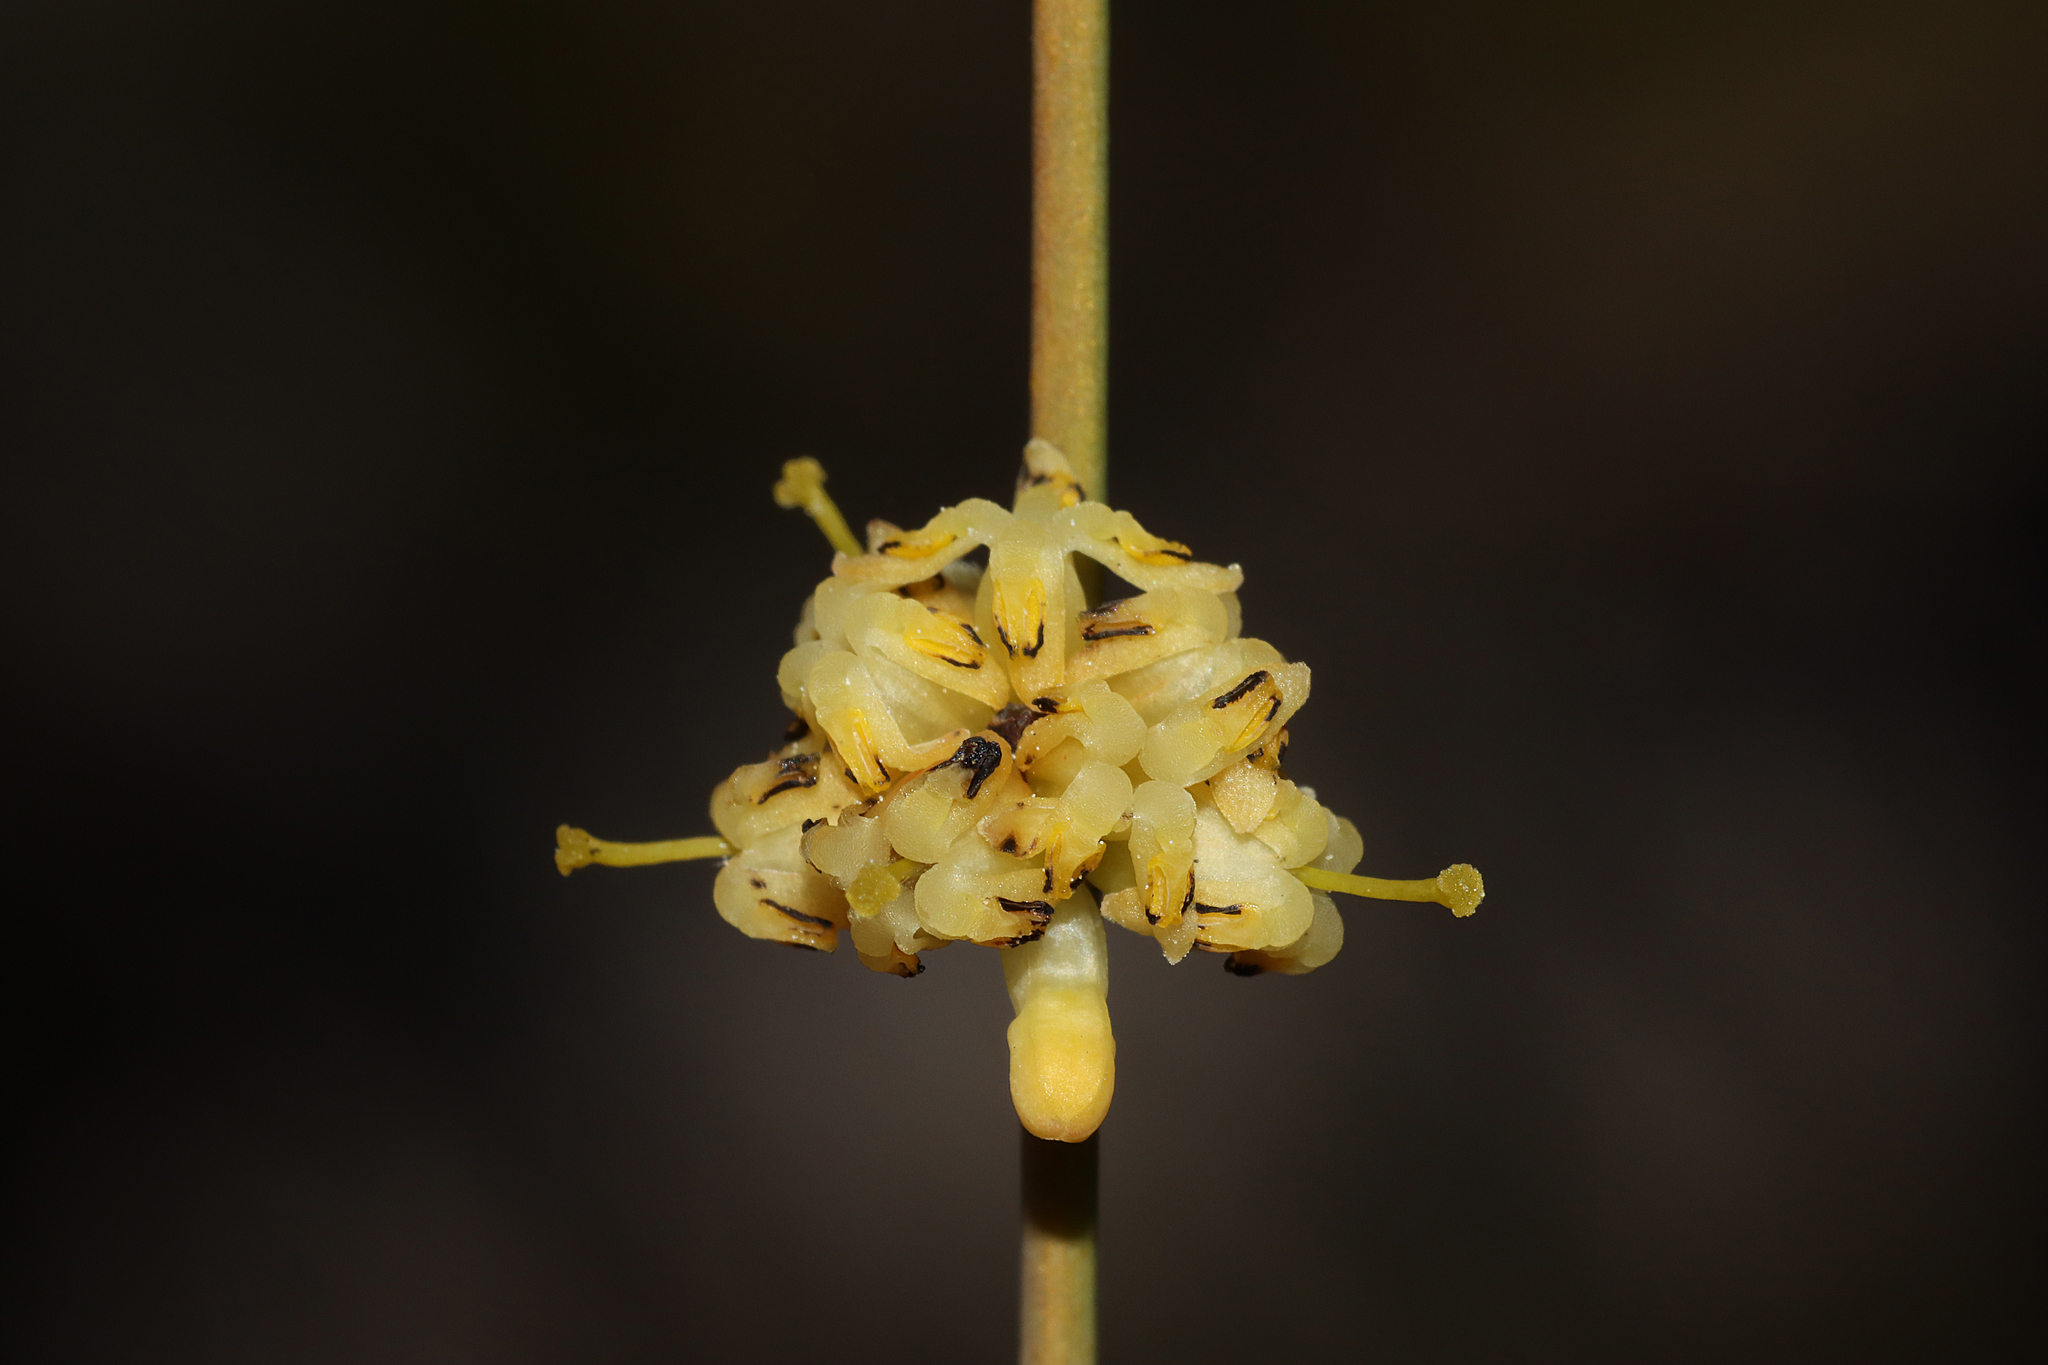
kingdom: Plantae
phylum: Tracheophyta
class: Magnoliopsida
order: Proteales
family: Proteaceae
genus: Stirlingia
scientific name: Stirlingia simplex
